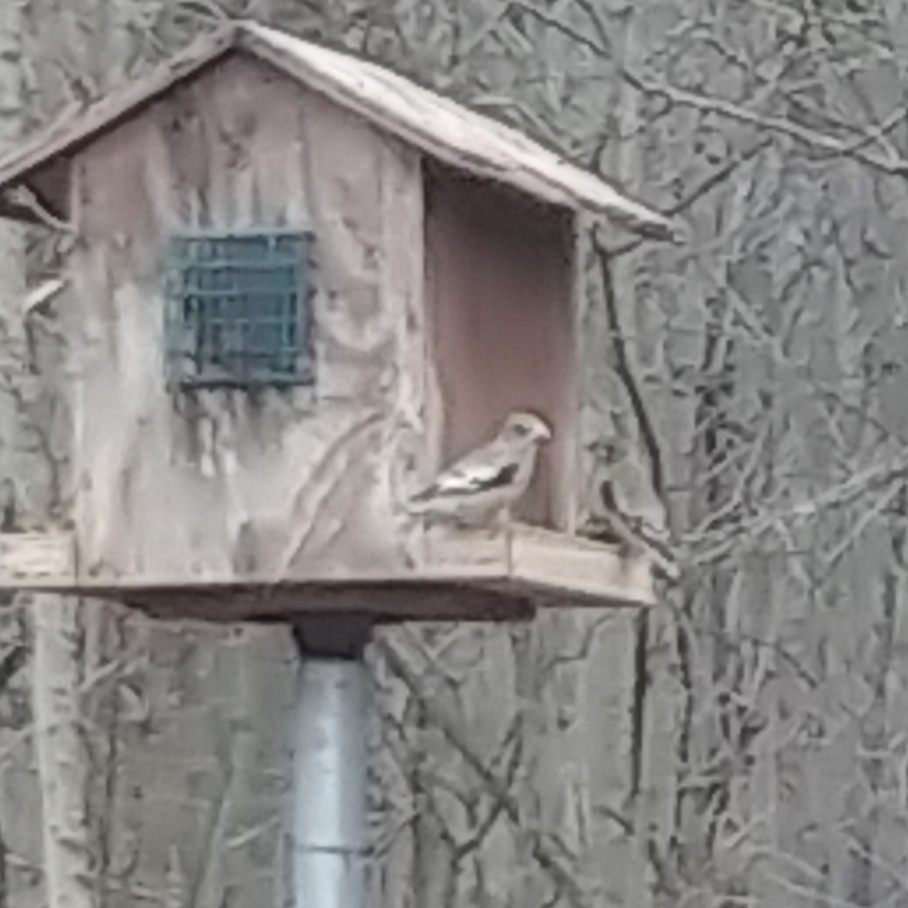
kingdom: Animalia
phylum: Chordata
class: Aves
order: Passeriformes
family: Fringillidae
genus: Hesperiphona
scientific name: Hesperiphona vespertina
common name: Evening grosbeak
